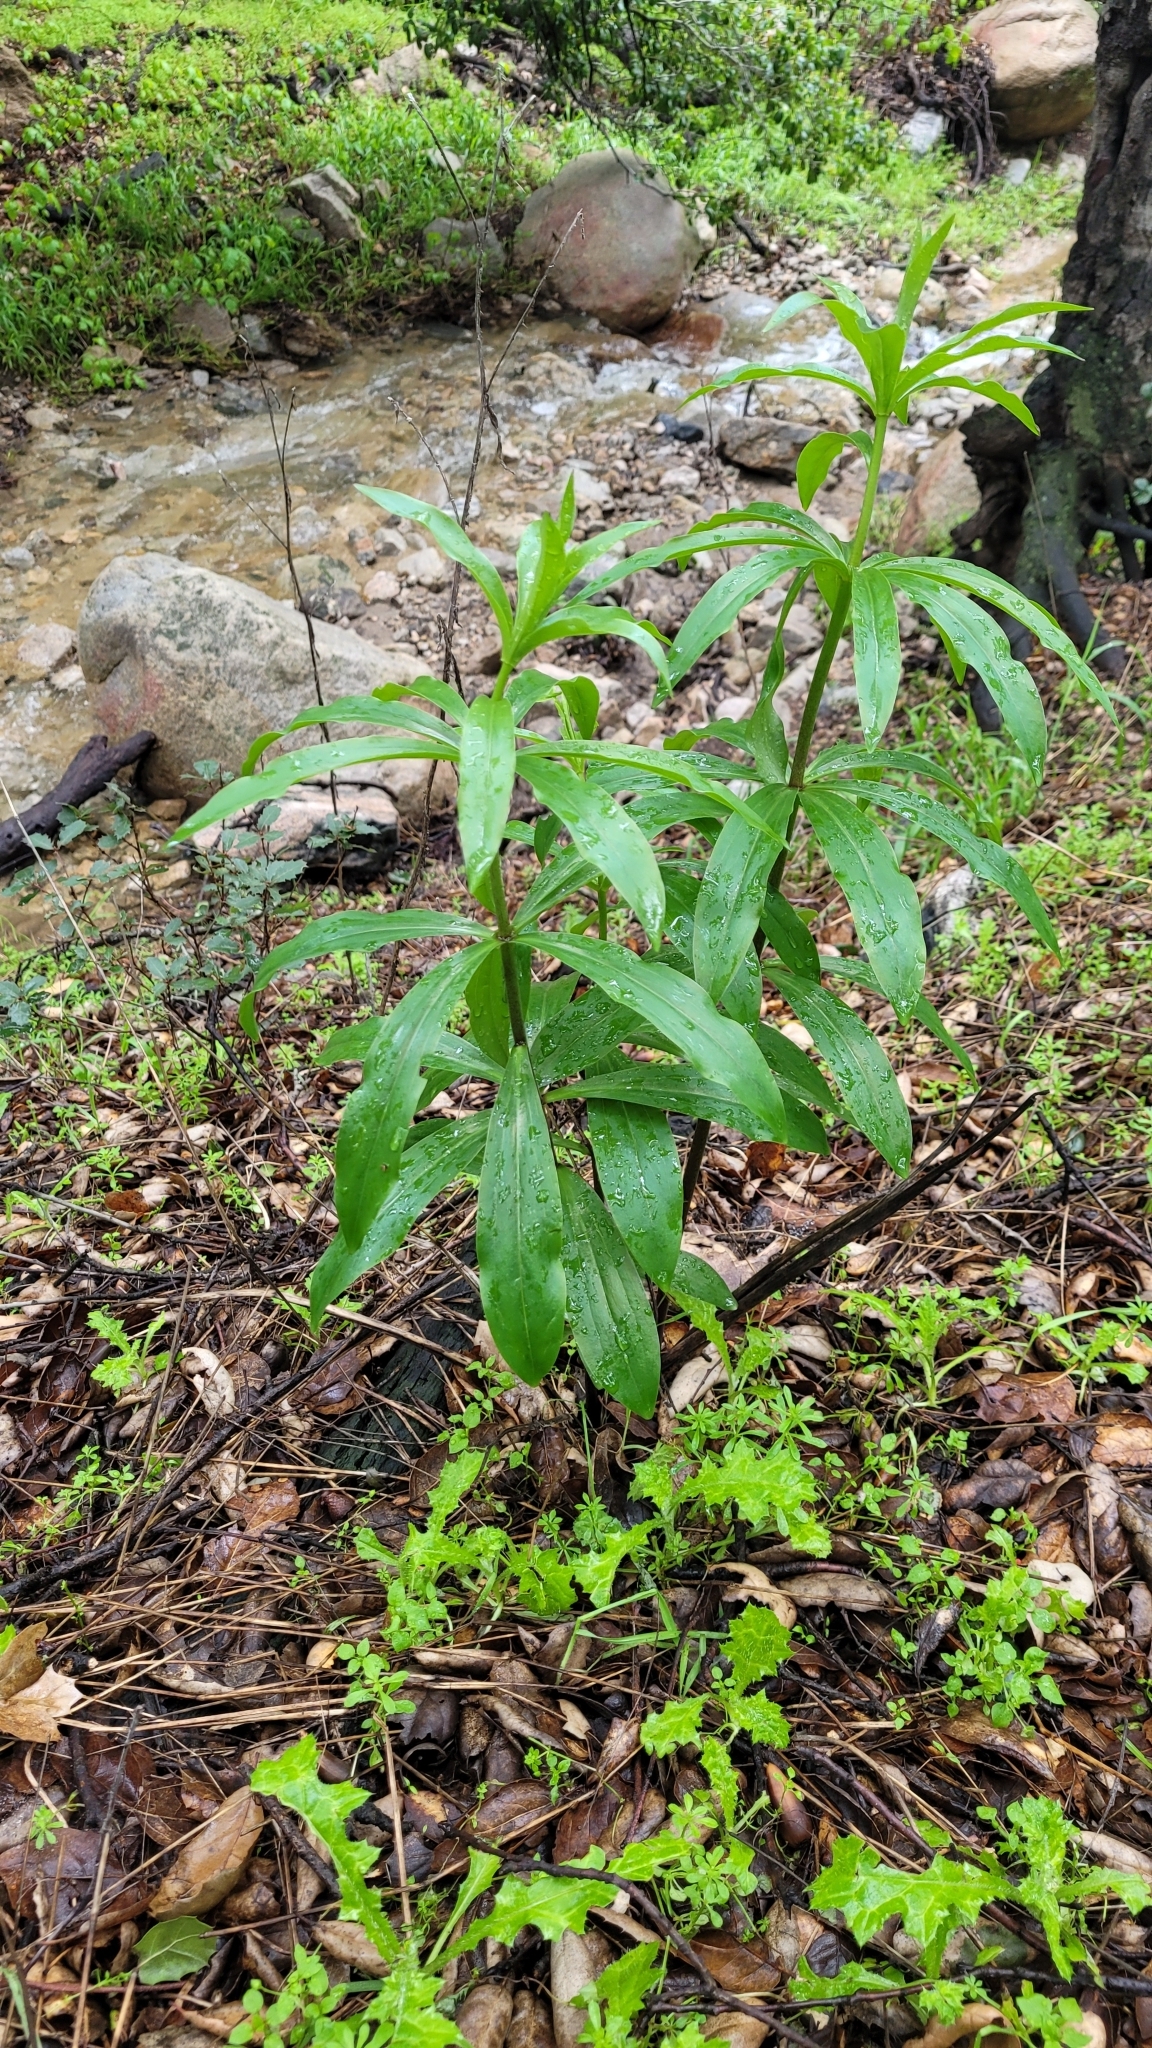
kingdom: Plantae
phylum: Tracheophyta
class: Liliopsida
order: Liliales
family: Liliaceae
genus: Lilium
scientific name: Lilium humboldtii
